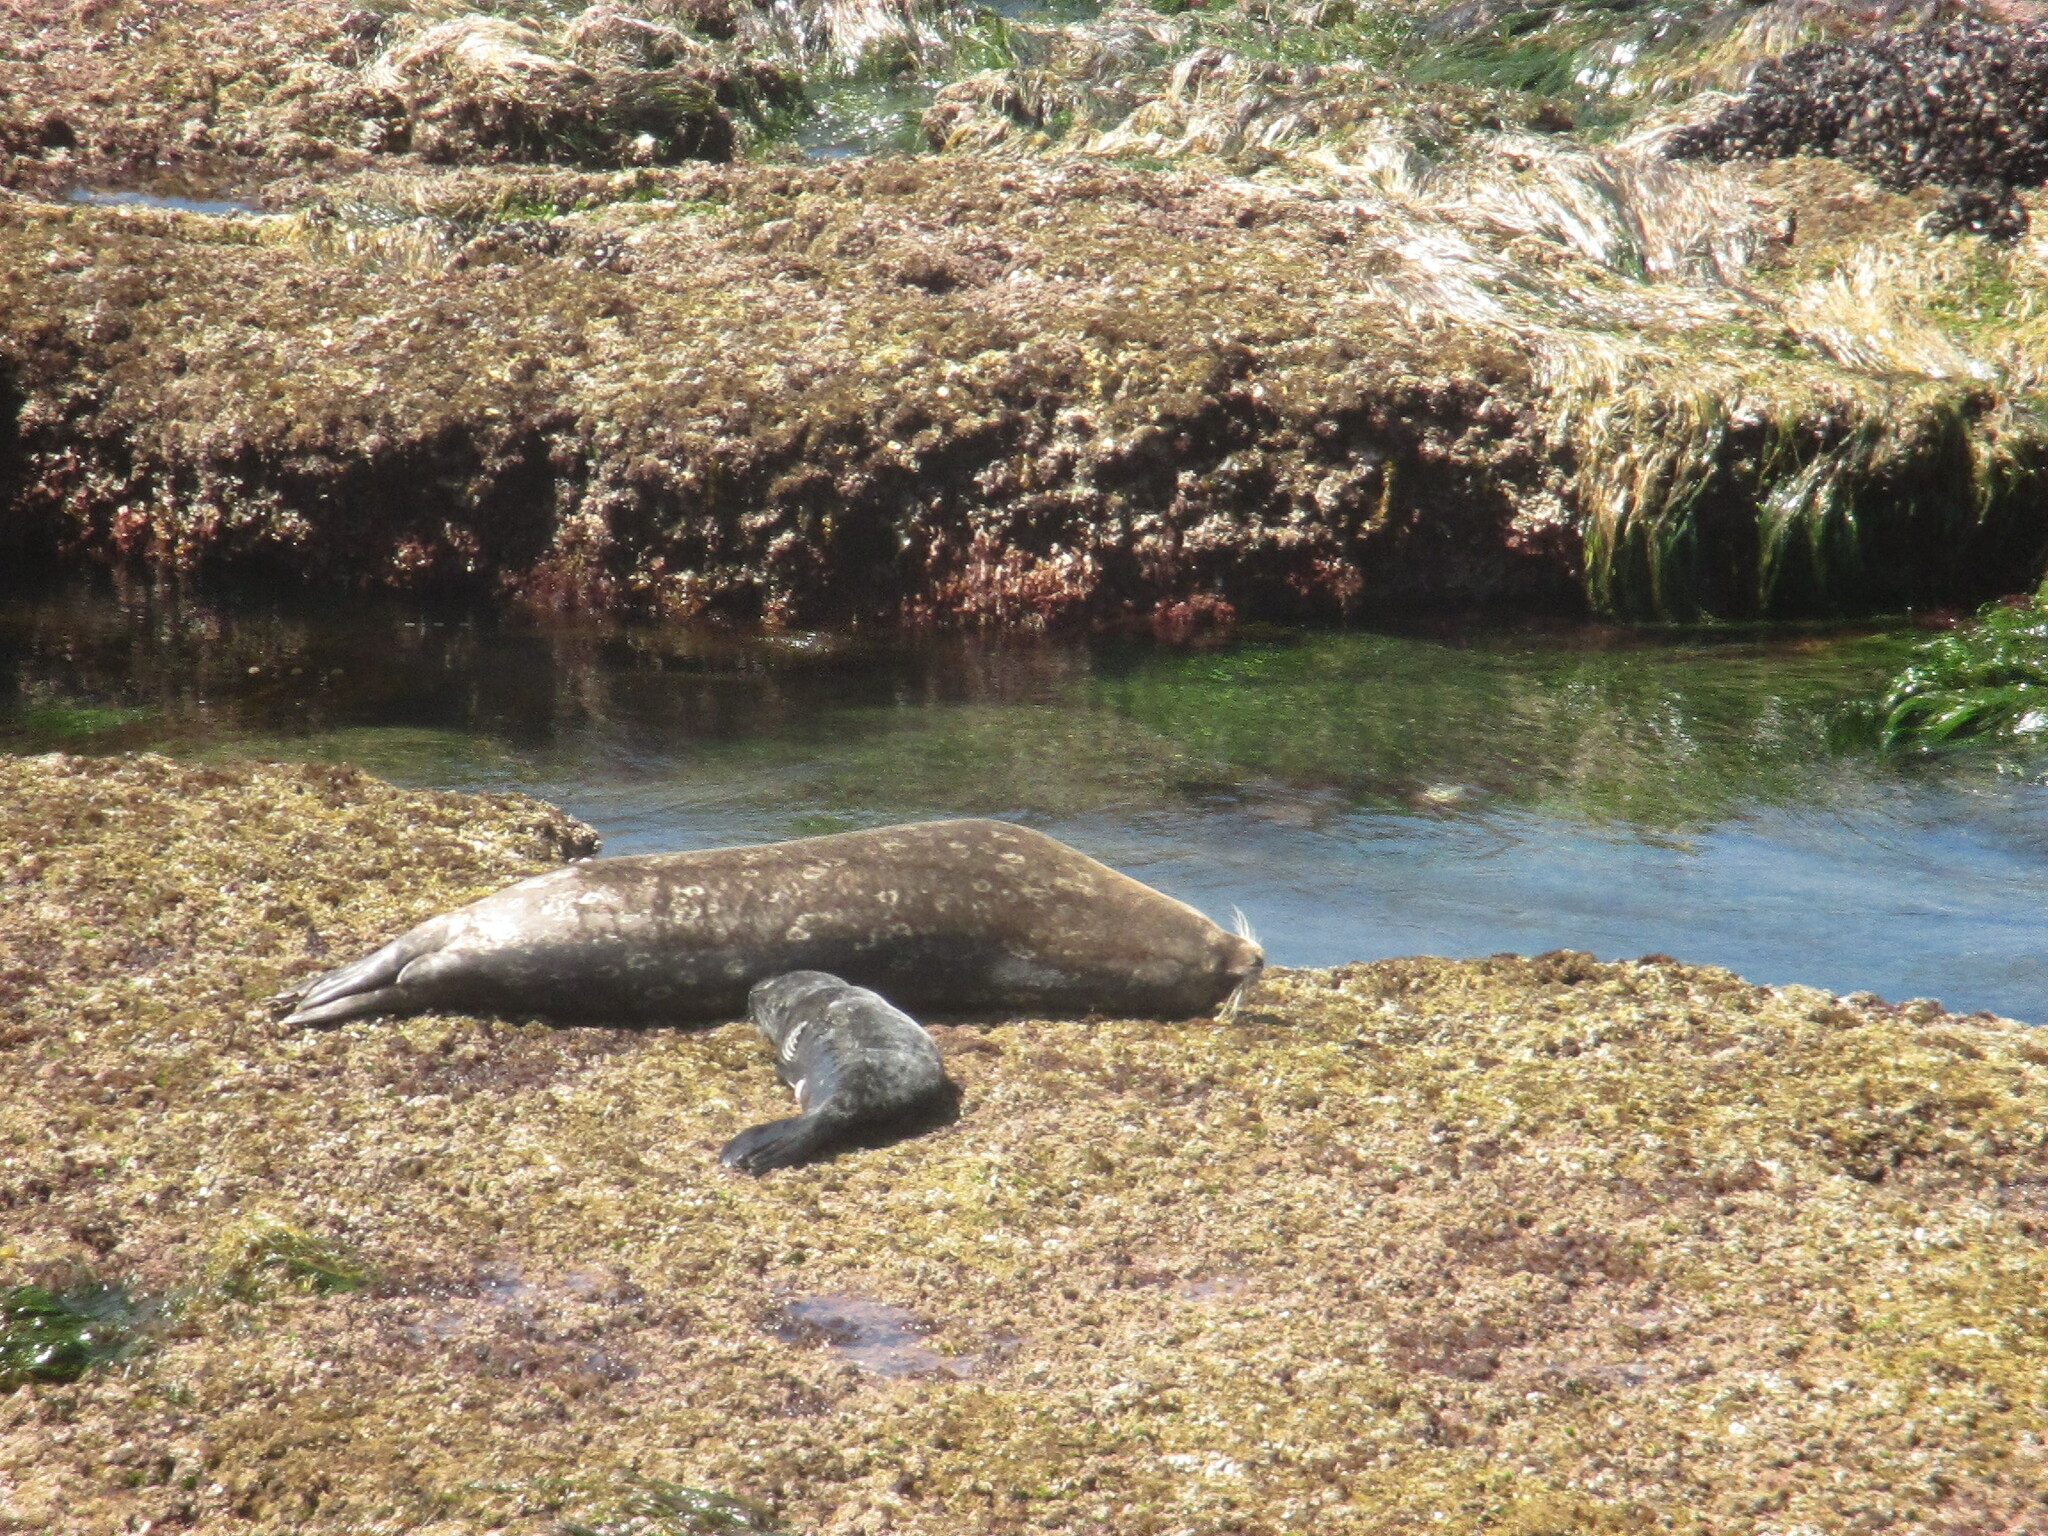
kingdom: Animalia
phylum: Chordata
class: Mammalia
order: Carnivora
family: Phocidae
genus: Phoca
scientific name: Phoca vitulina
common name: Harbor seal
